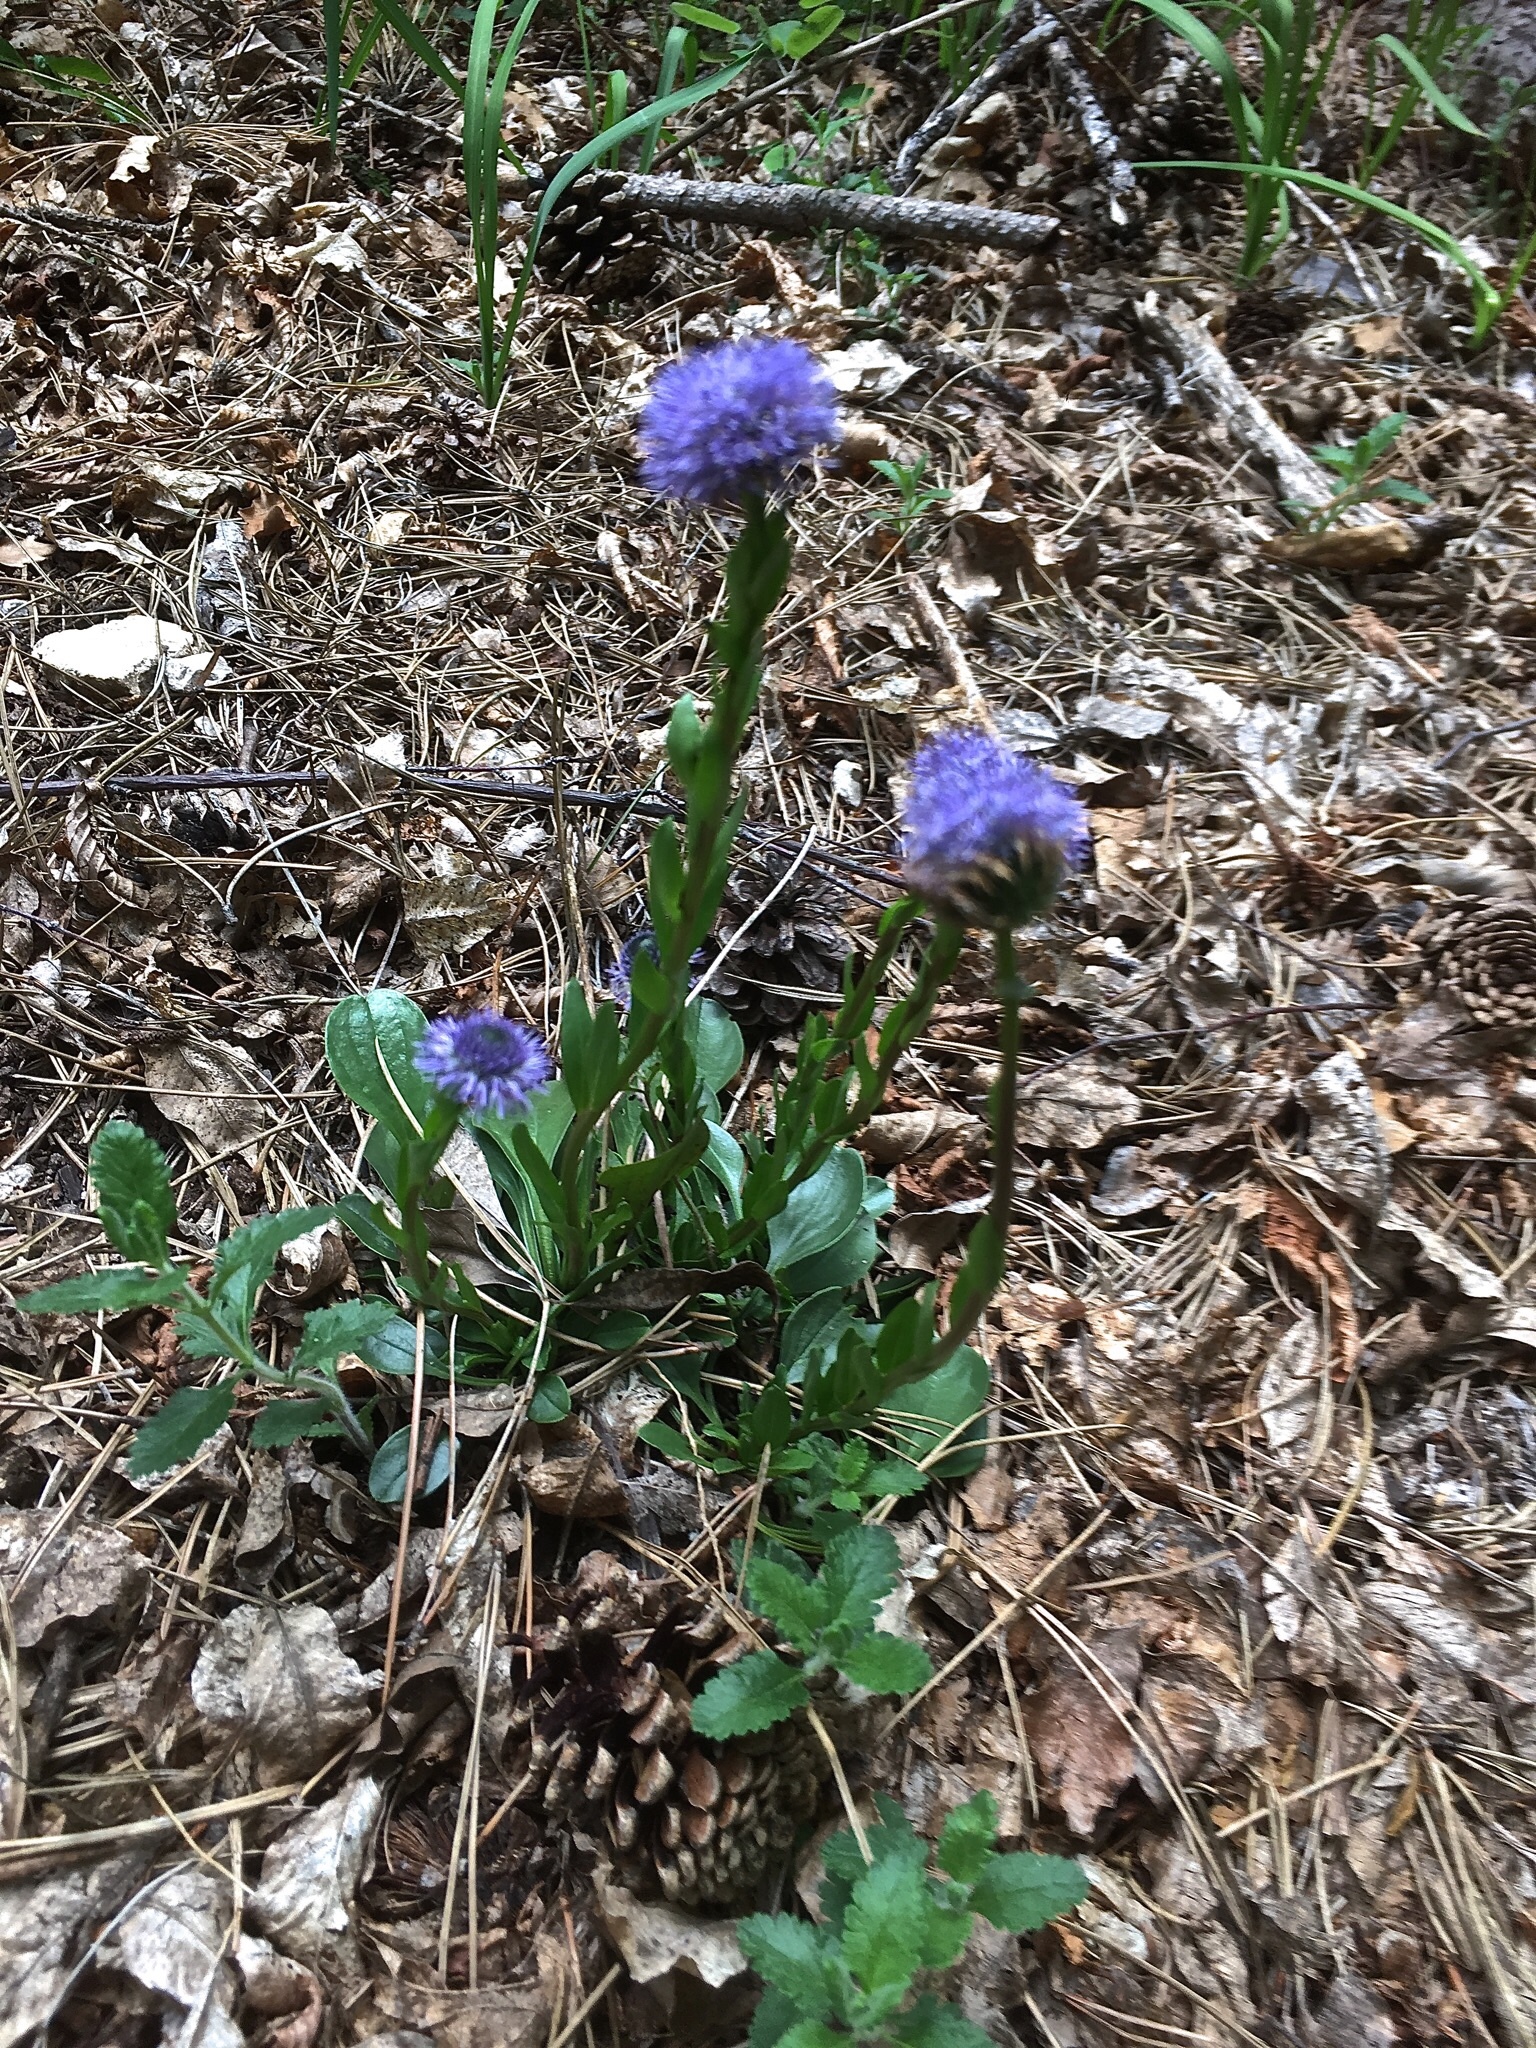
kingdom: Plantae
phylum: Tracheophyta
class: Magnoliopsida
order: Lamiales
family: Plantaginaceae
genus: Globularia
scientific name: Globularia bisnagarica
